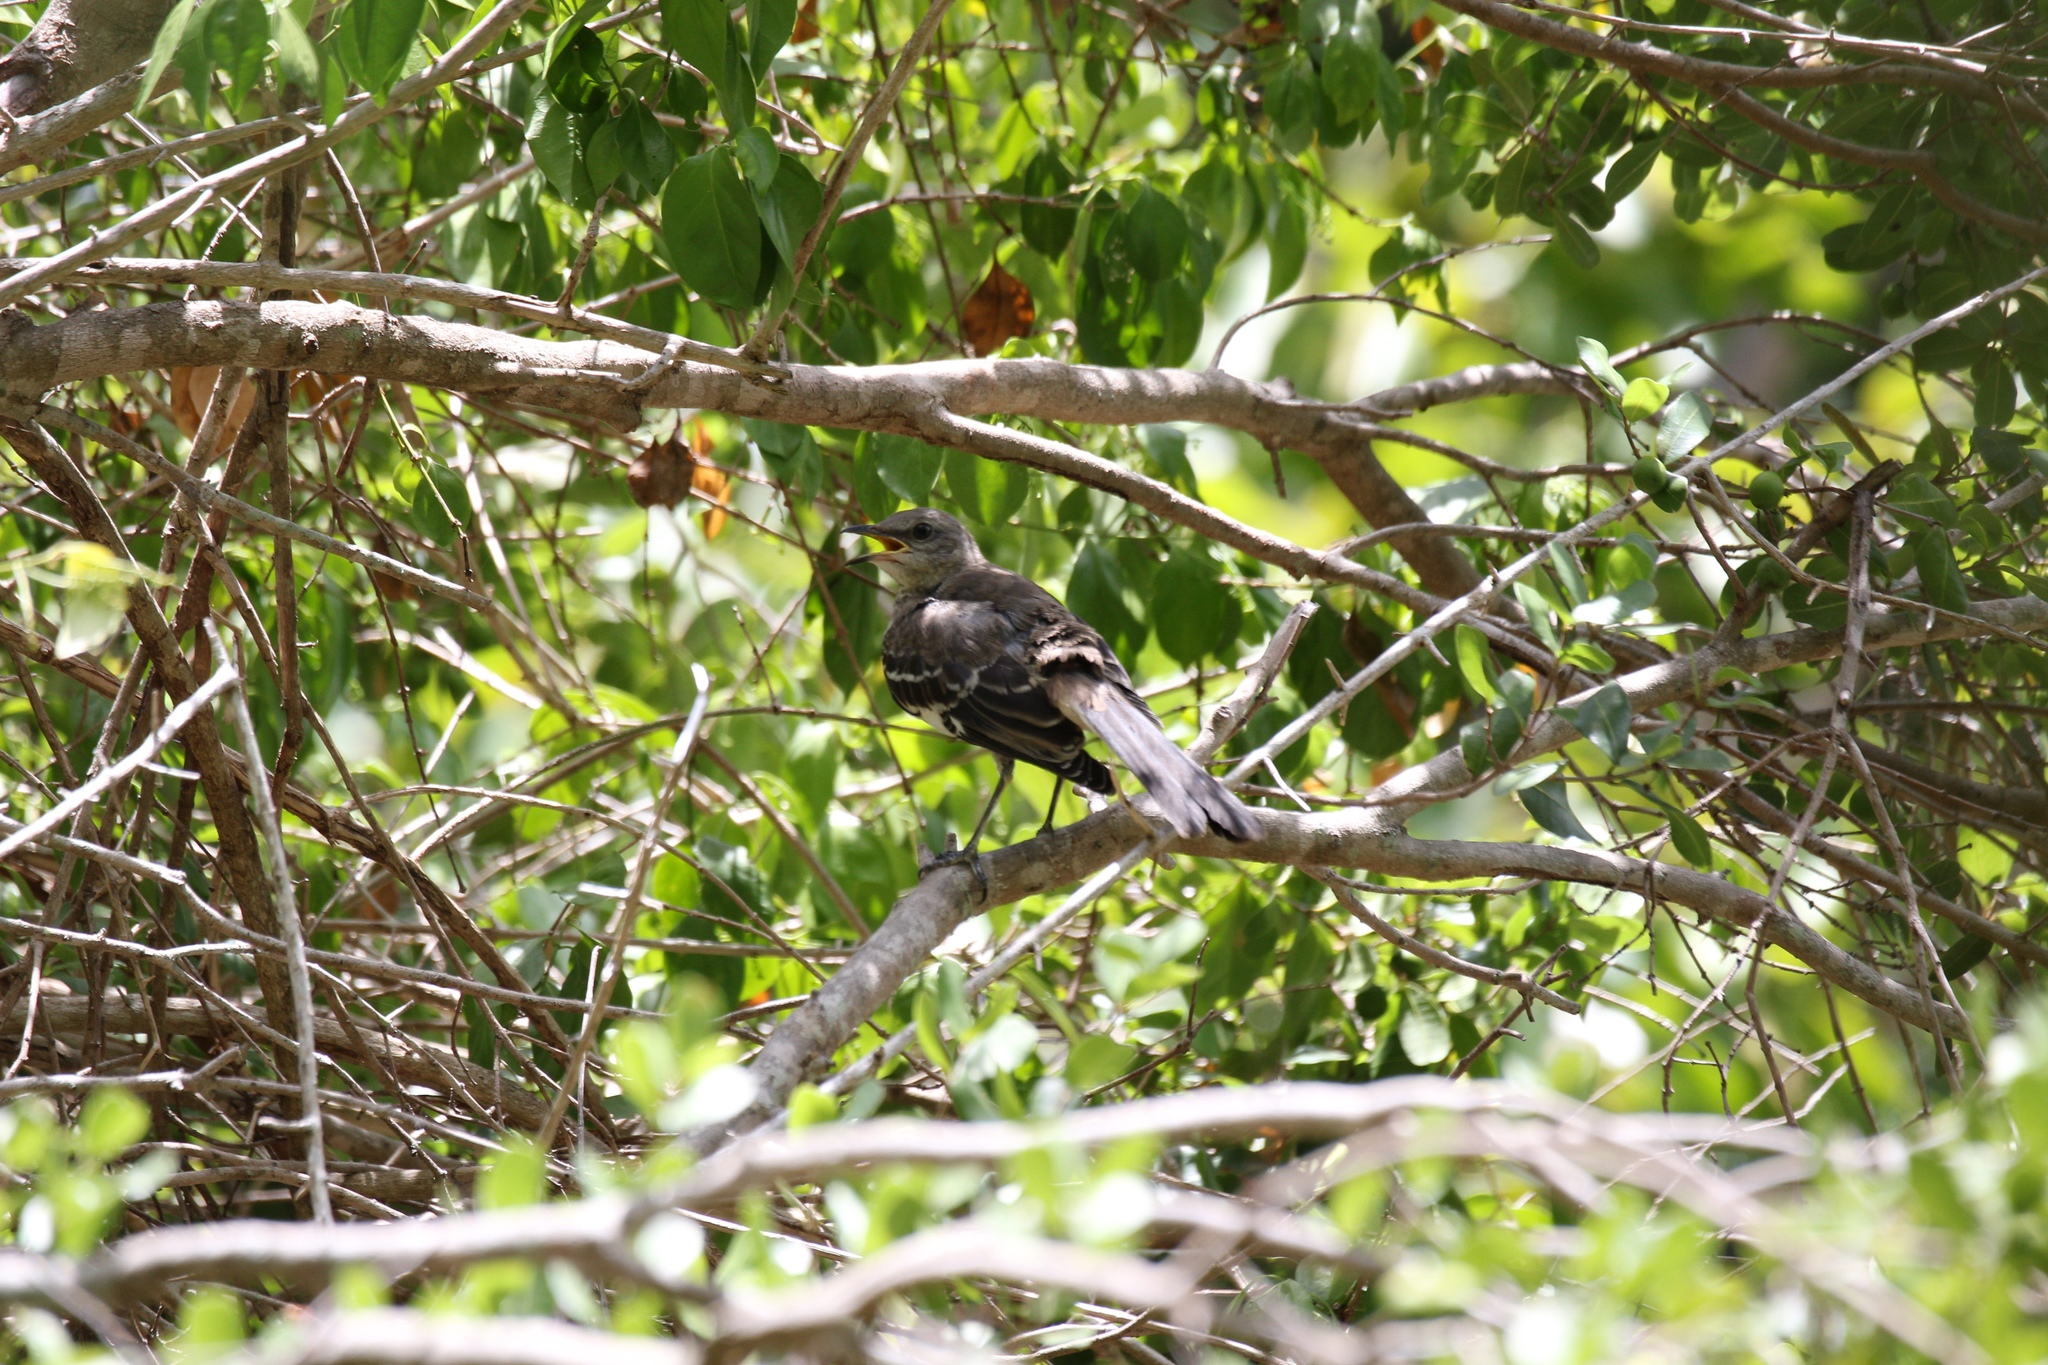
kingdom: Animalia
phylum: Chordata
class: Aves
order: Passeriformes
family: Mimidae
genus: Mimus
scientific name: Mimus polyglottos
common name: Northern mockingbird
